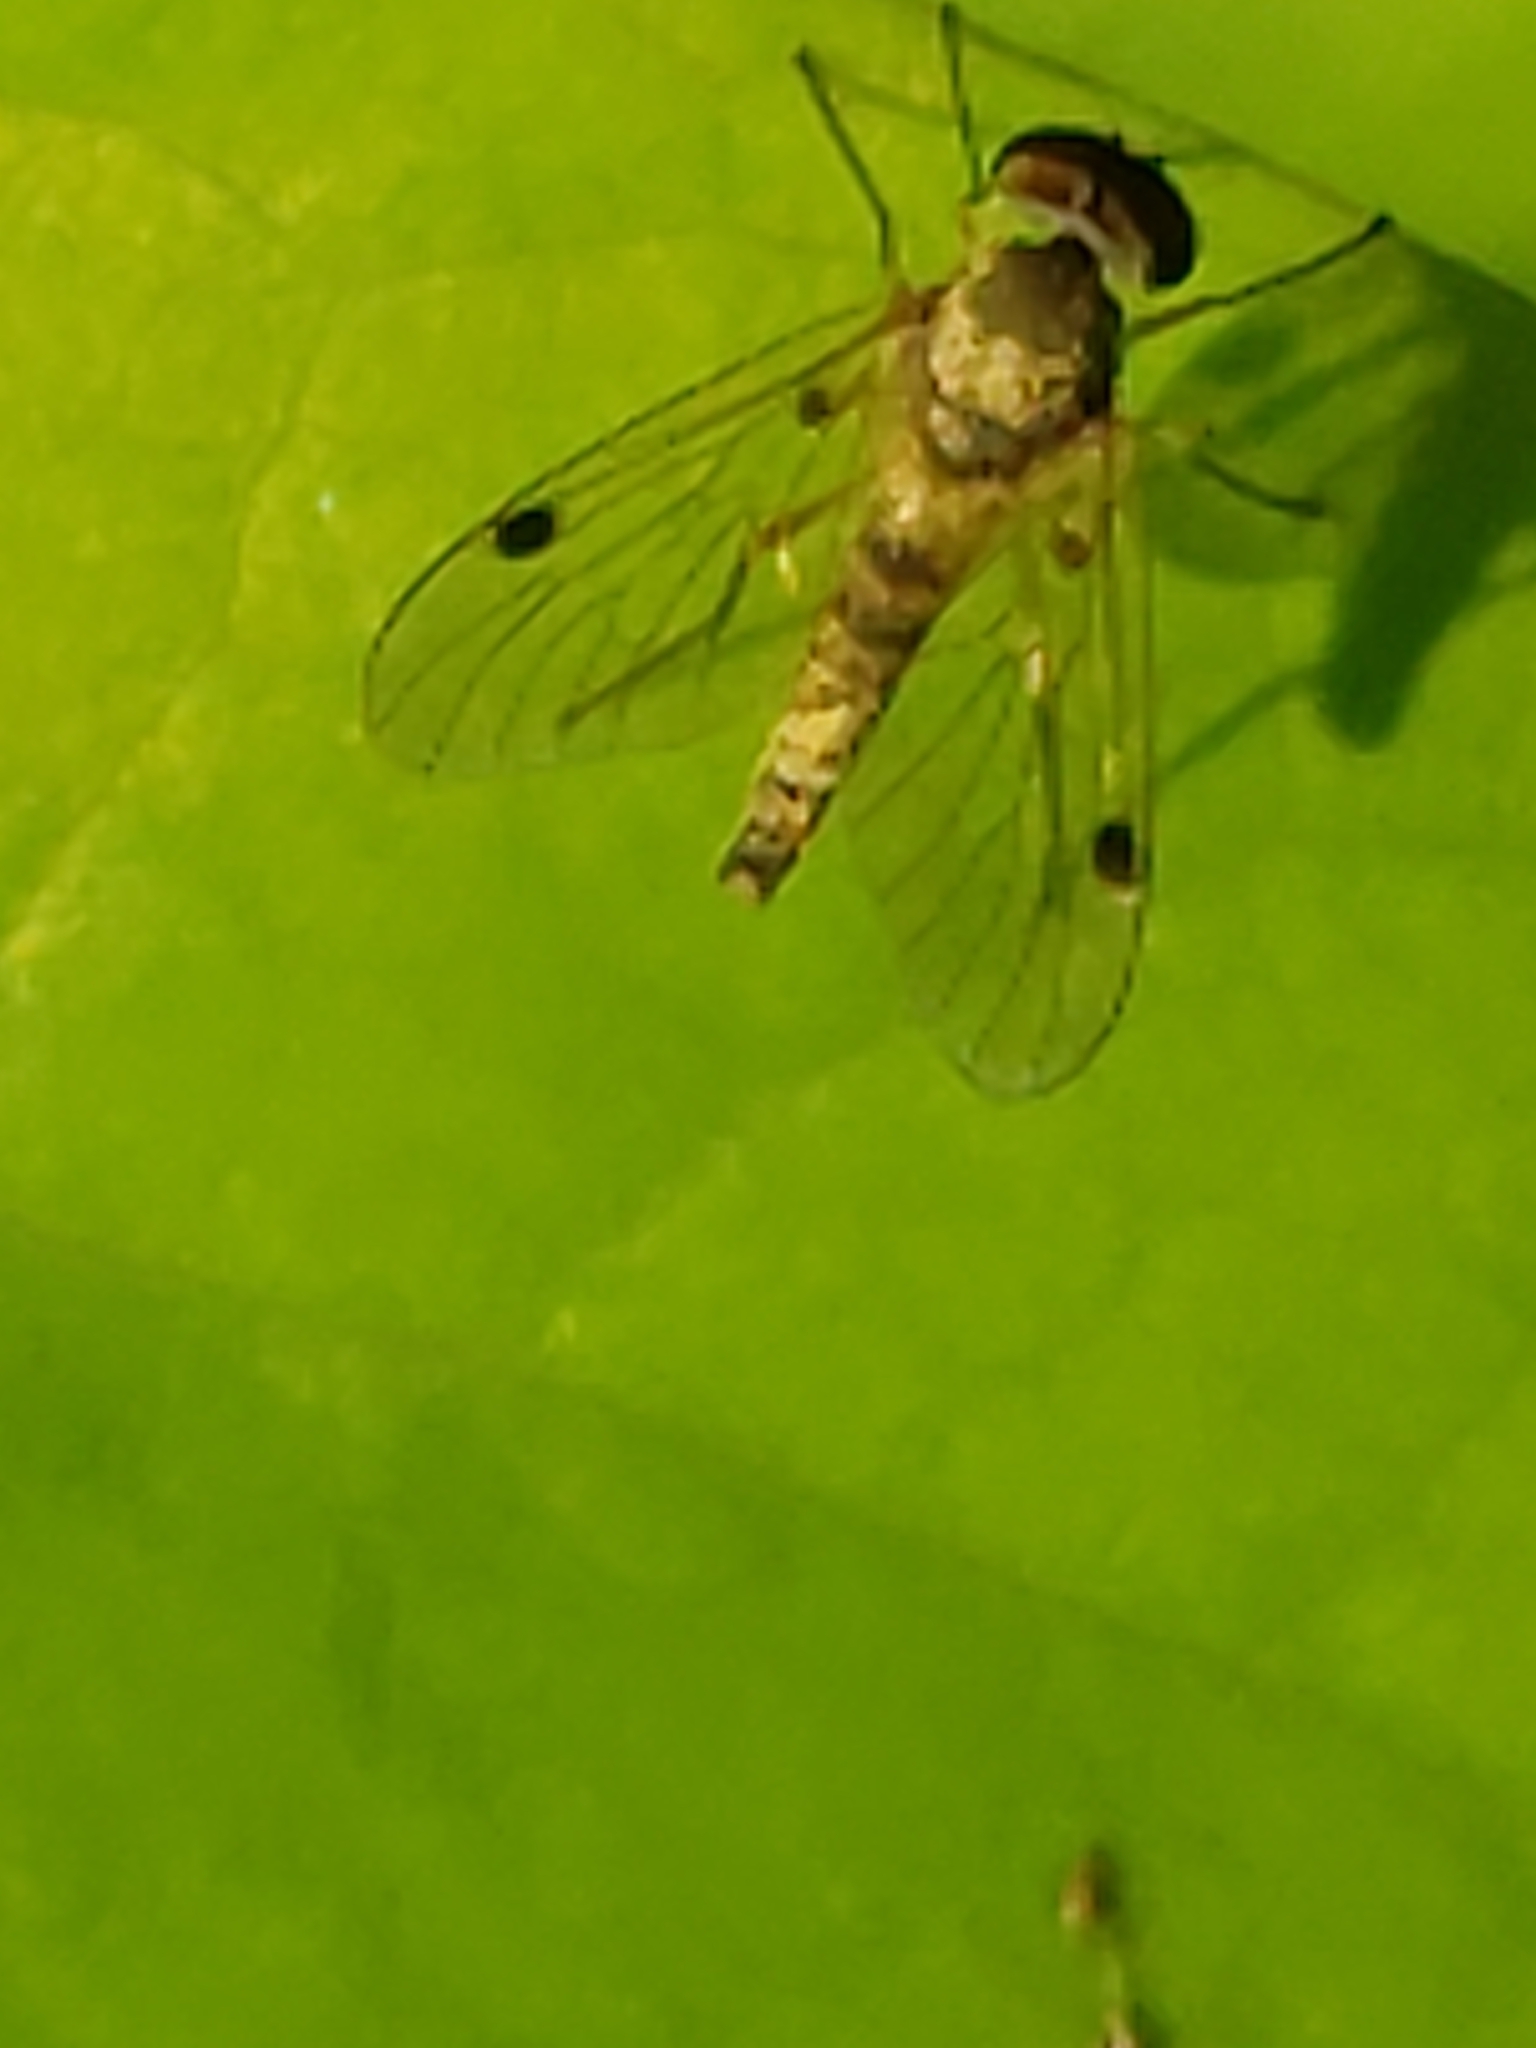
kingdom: Animalia
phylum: Arthropoda
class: Insecta
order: Diptera
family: Rhagionidae
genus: Chrysopilus
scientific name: Chrysopilus modestus
